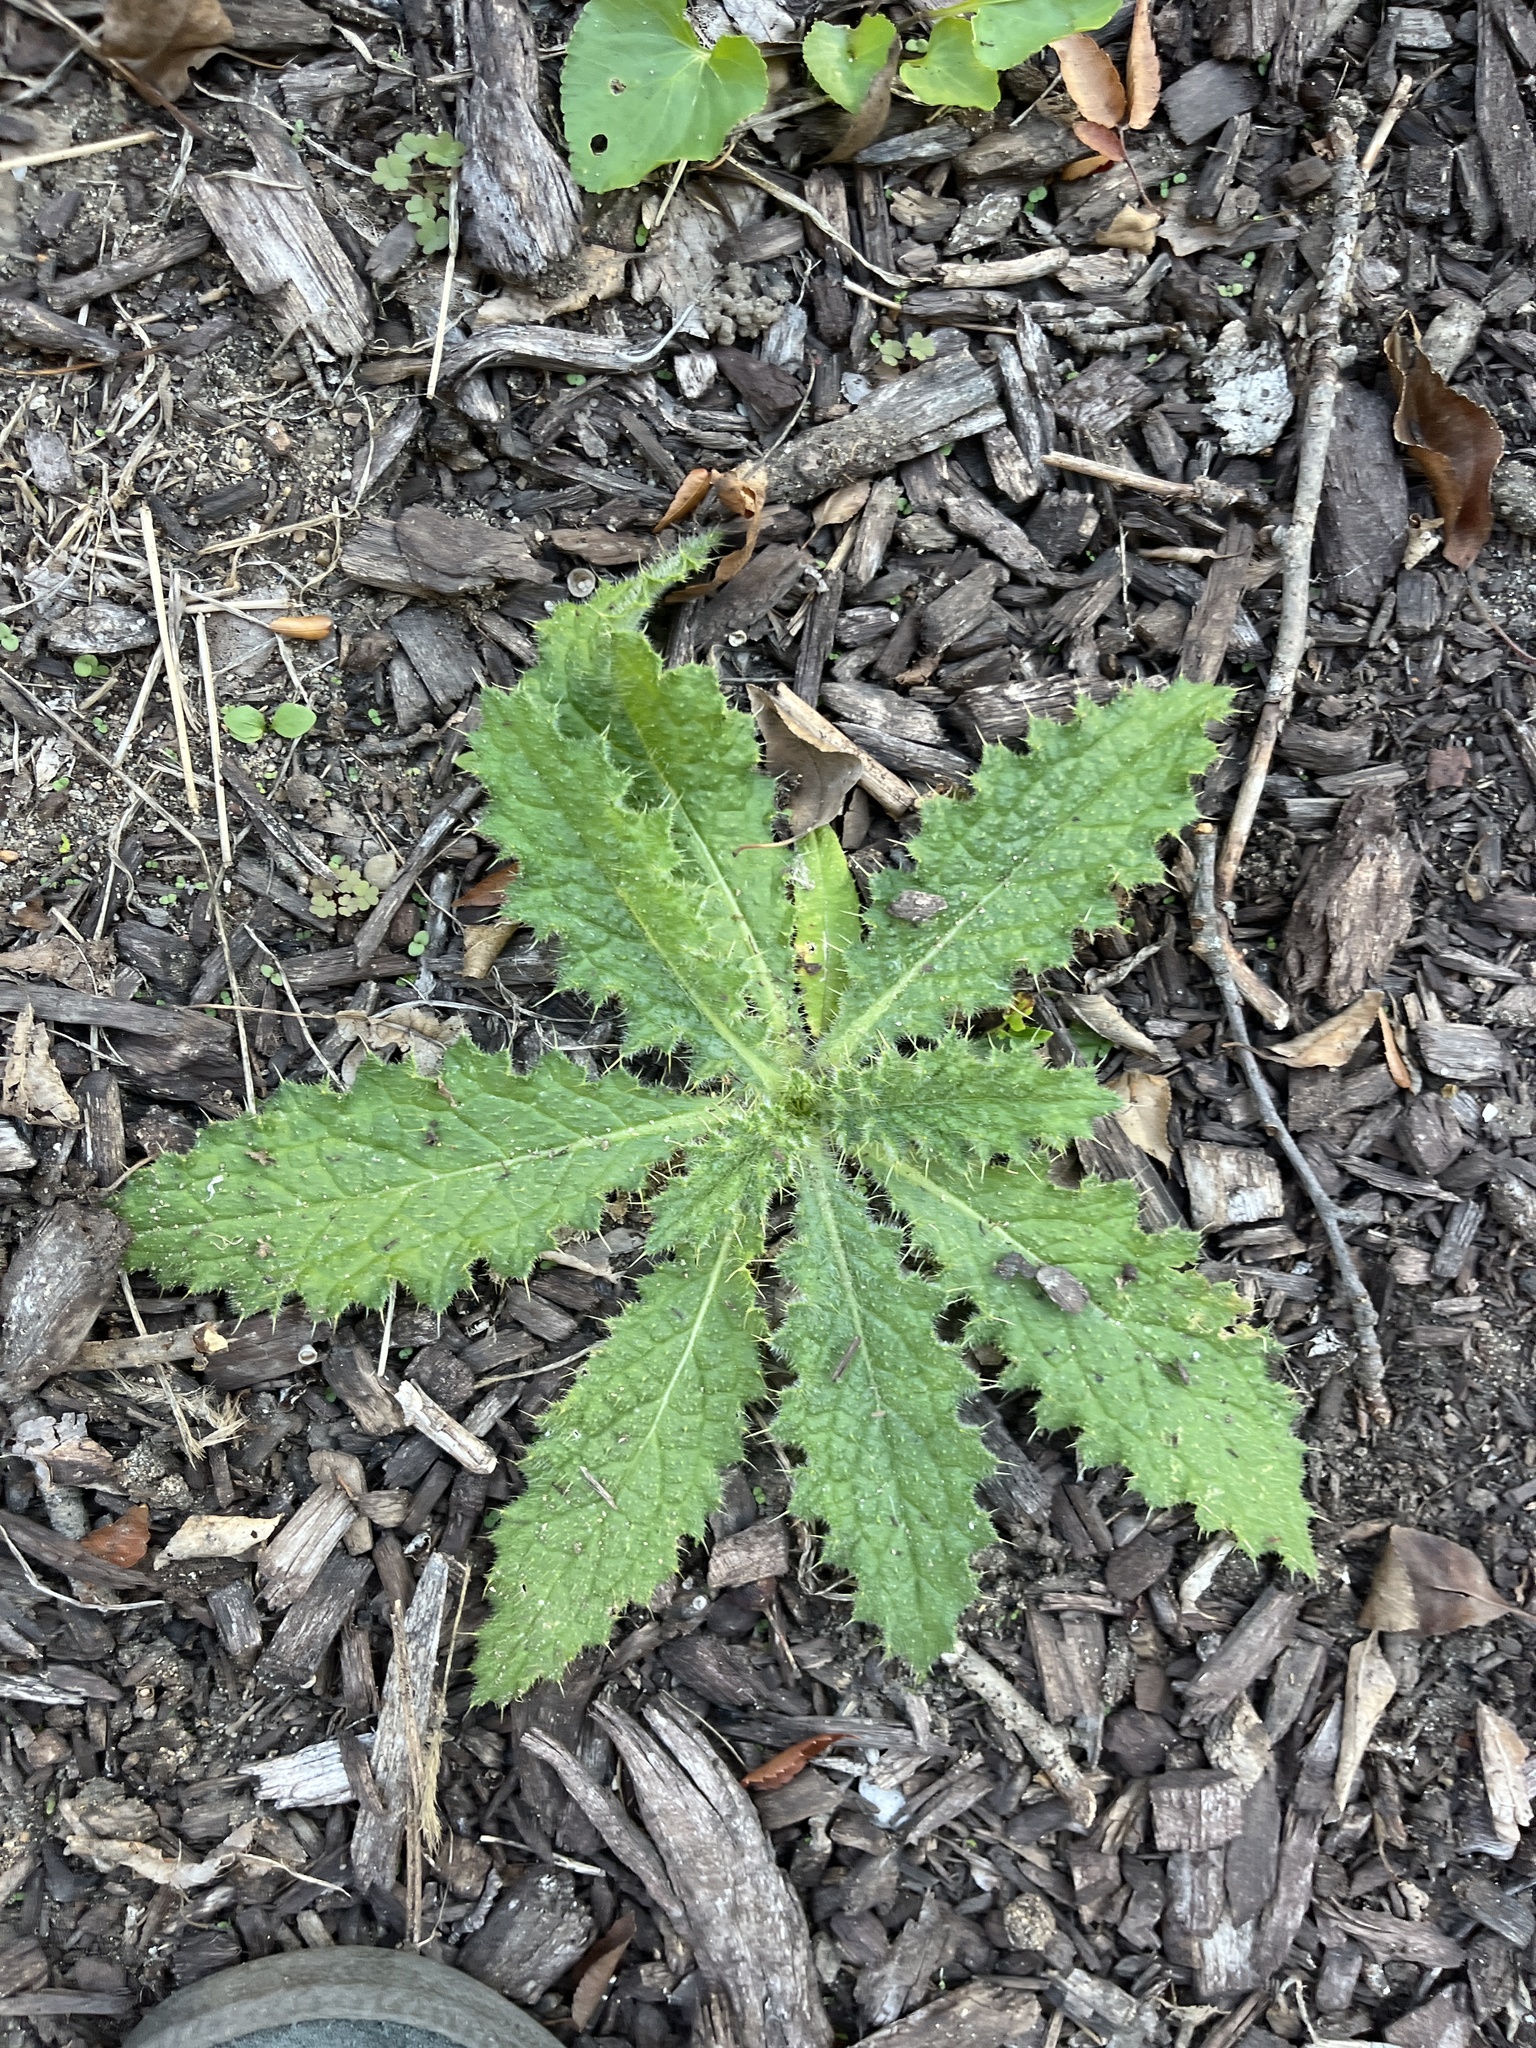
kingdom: Plantae
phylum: Tracheophyta
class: Magnoliopsida
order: Asterales
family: Asteraceae
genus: Cirsium
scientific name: Cirsium vulgare
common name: Bull thistle
